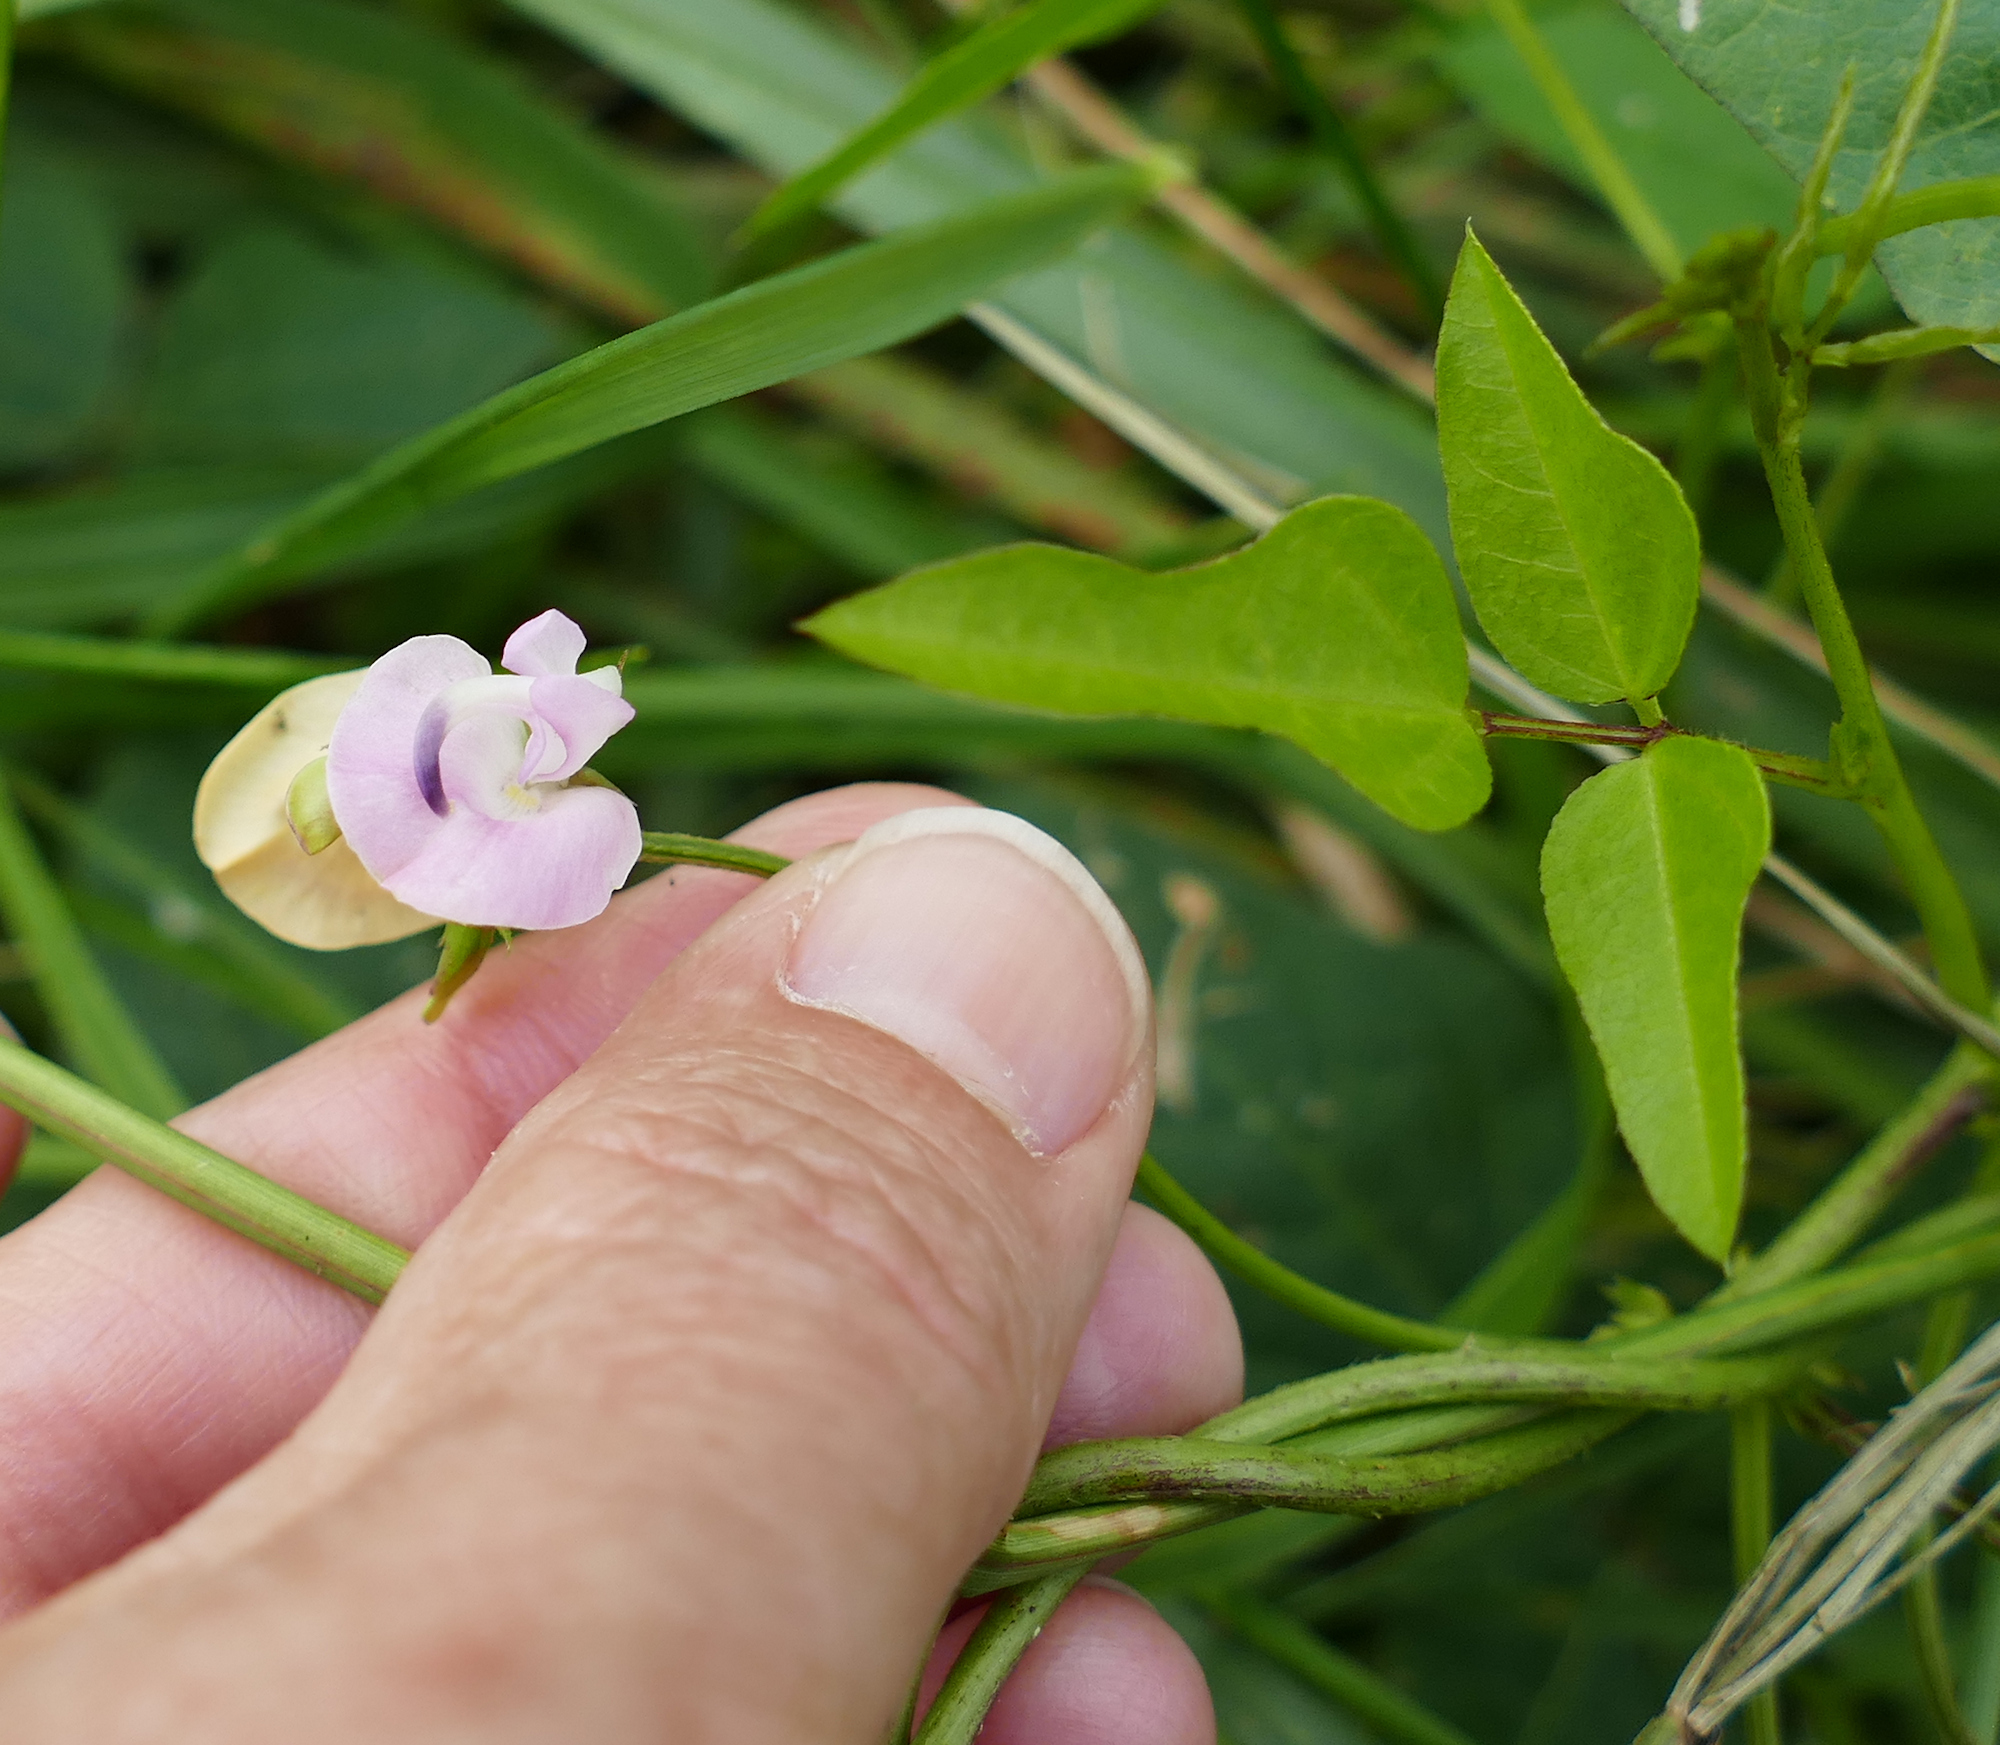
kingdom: Plantae
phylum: Tracheophyta
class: Magnoliopsida
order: Fabales
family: Fabaceae
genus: Strophostyles
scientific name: Strophostyles helvola
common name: Trailing wild bean
